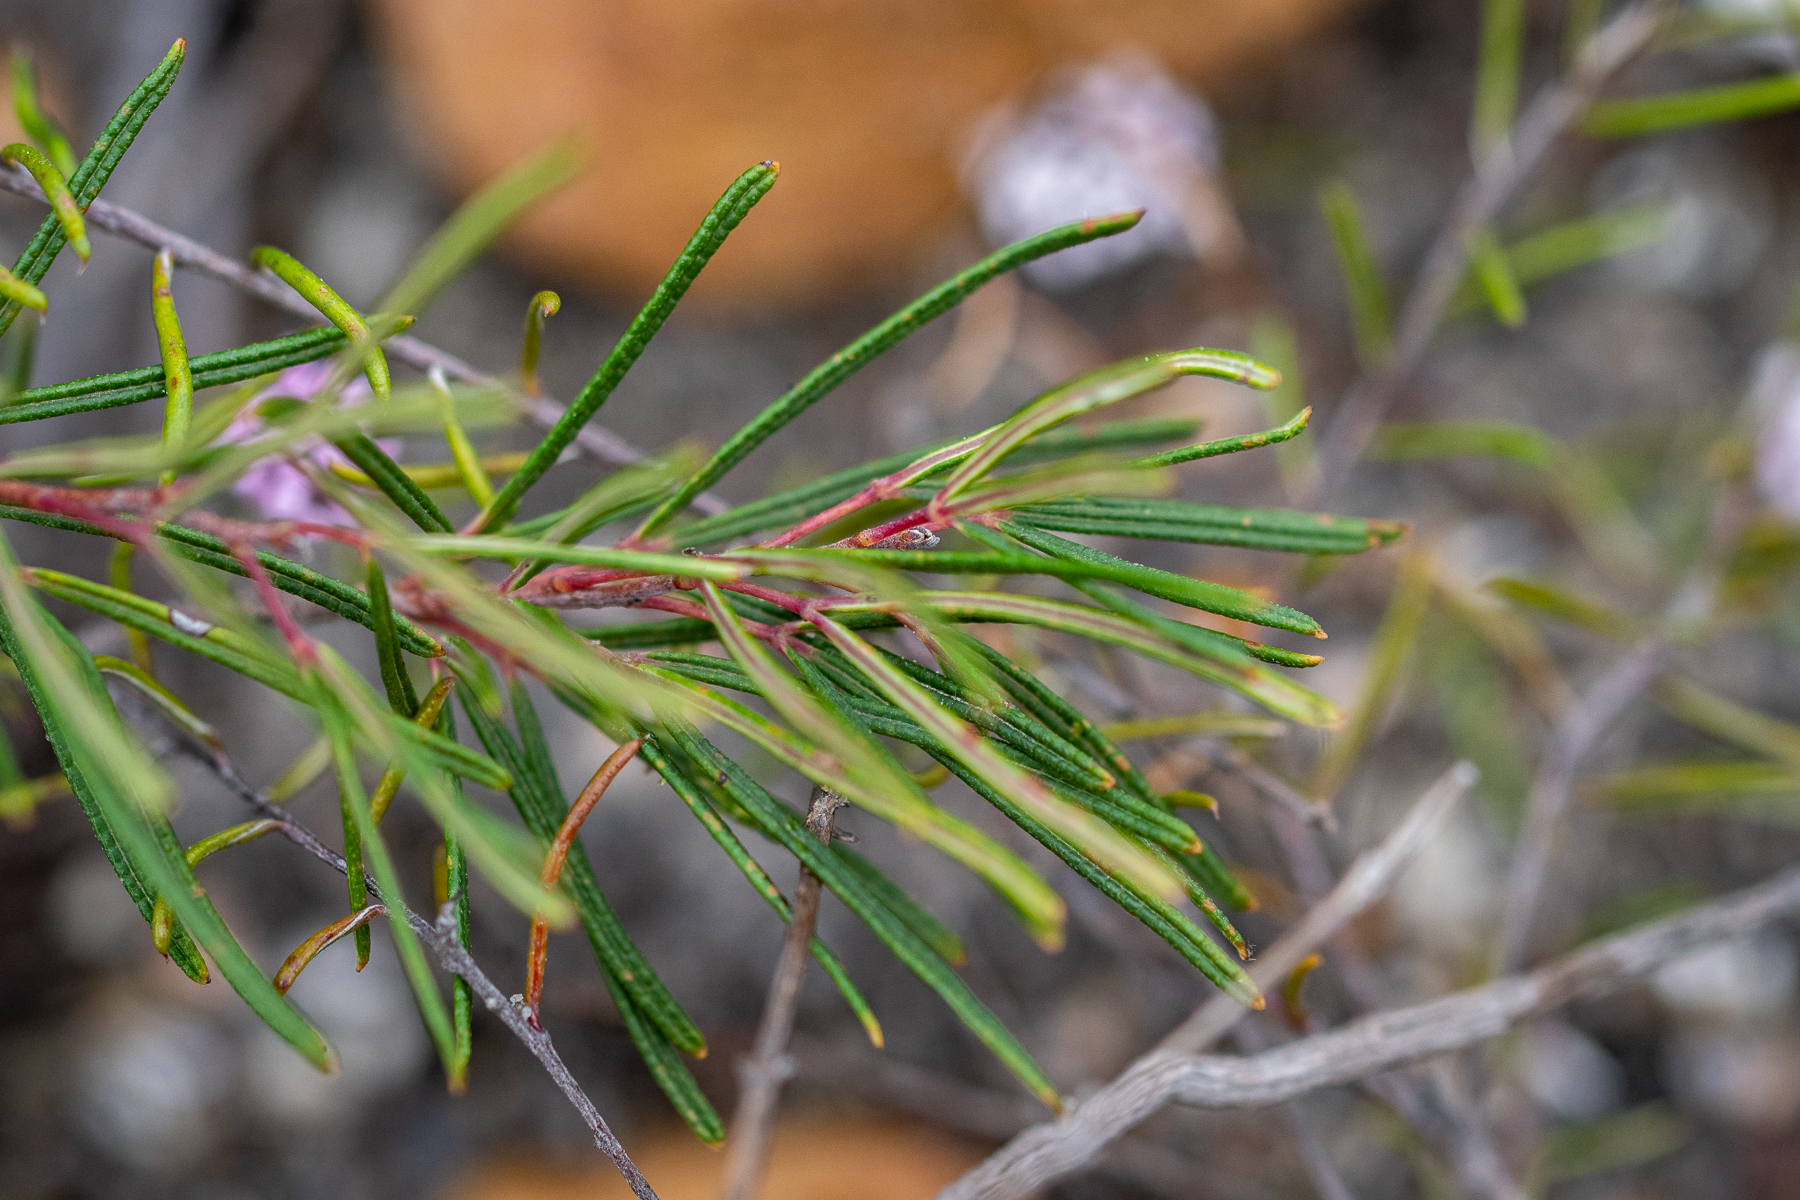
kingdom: Plantae
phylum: Tracheophyta
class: Magnoliopsida
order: Sapindales
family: Anacardiaceae
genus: Searsia
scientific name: Searsia rosmarinifolia
